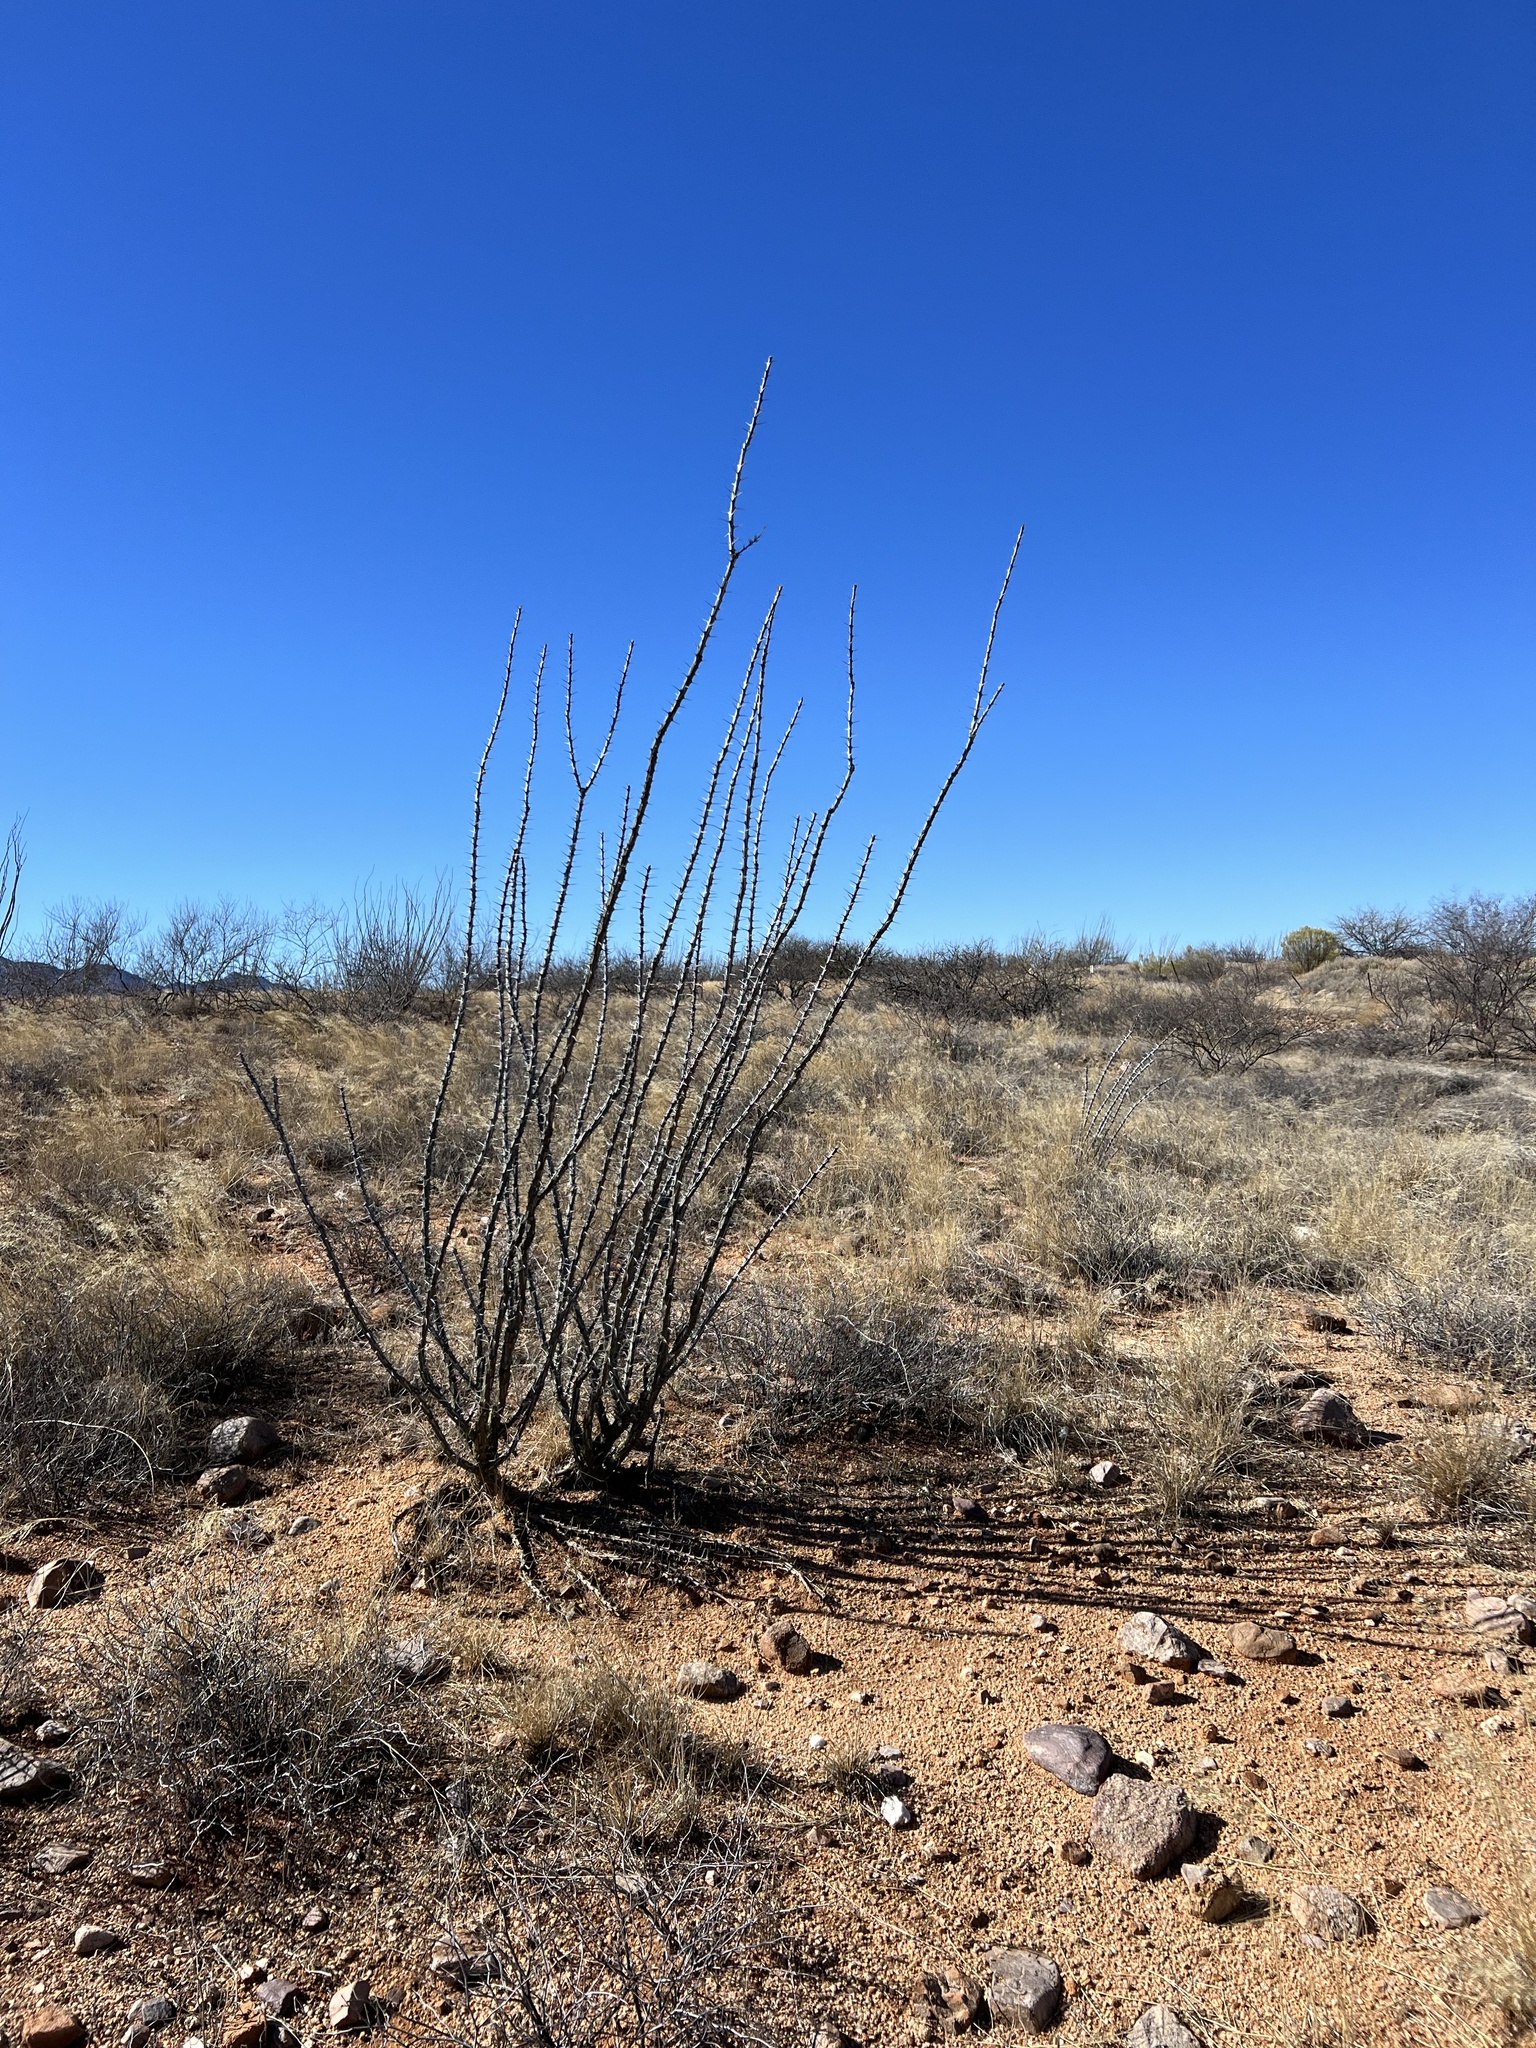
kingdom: Plantae
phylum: Tracheophyta
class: Magnoliopsida
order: Ericales
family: Fouquieriaceae
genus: Fouquieria
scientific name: Fouquieria splendens
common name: Vine-cactus
